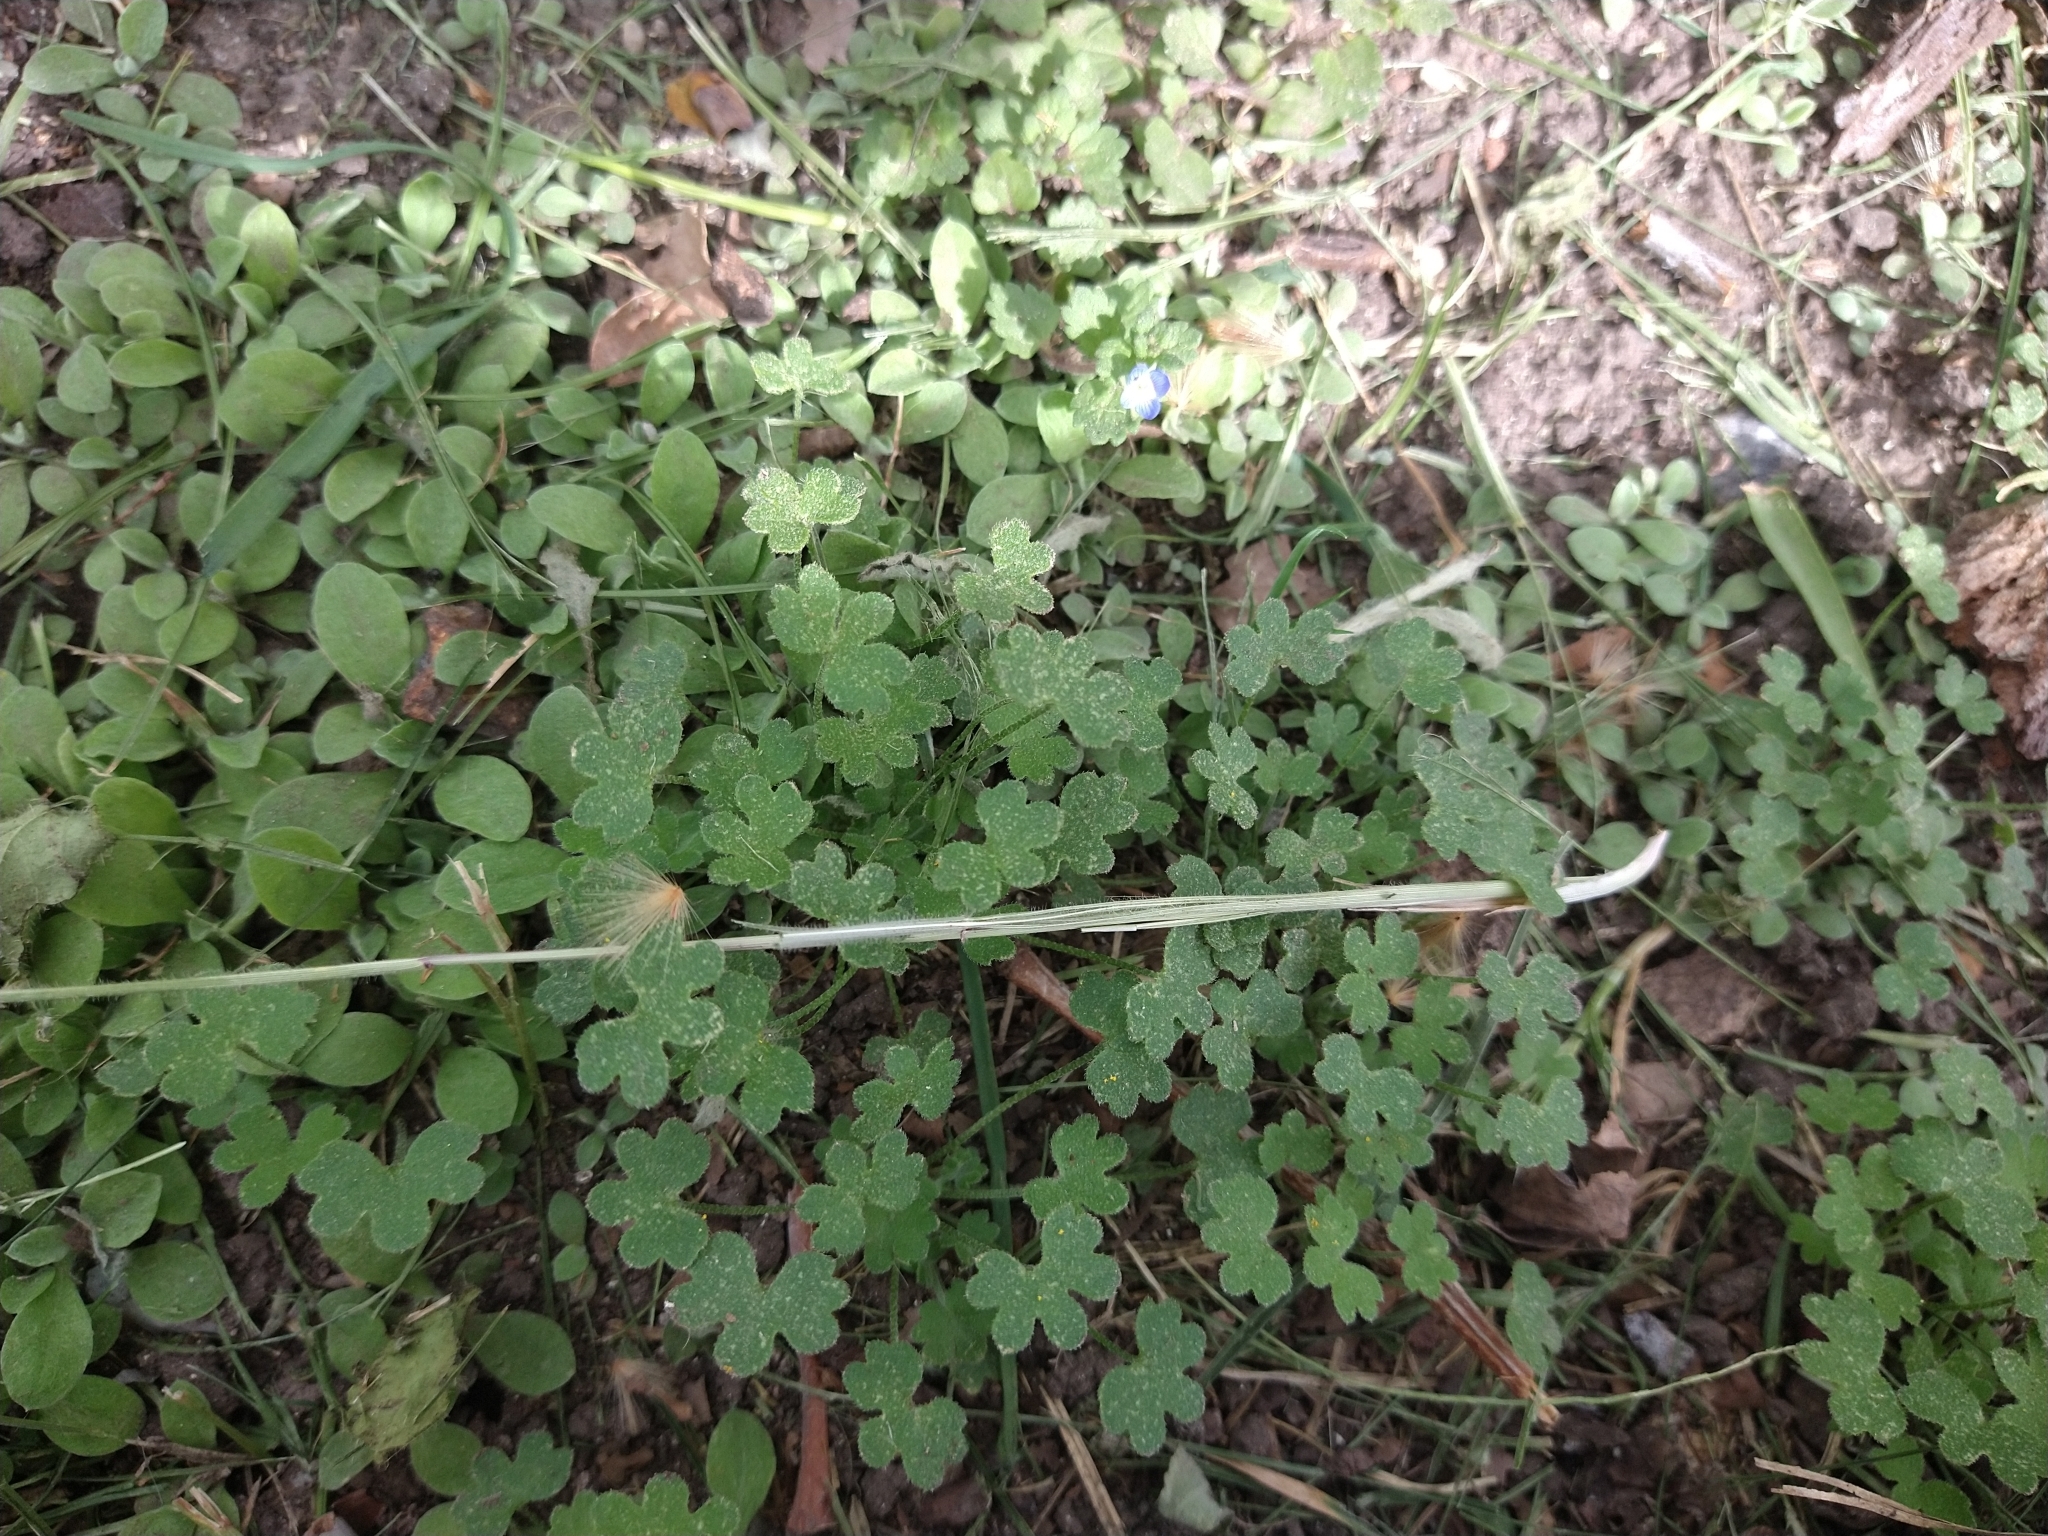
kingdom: Plantae
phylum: Tracheophyta
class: Magnoliopsida
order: Apiales
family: Apiaceae
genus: Bowlesia
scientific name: Bowlesia incana
